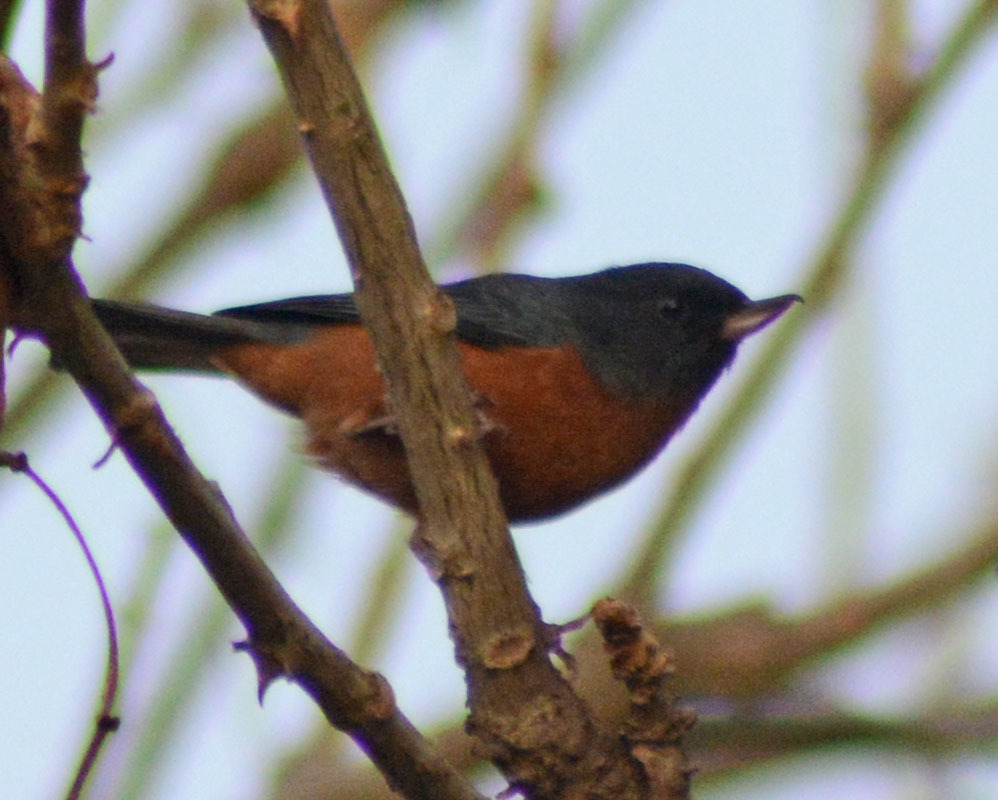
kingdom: Animalia
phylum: Chordata
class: Aves
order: Passeriformes
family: Thraupidae
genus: Diglossa
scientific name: Diglossa baritula
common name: Cinnamon-bellied flowerpiercer
